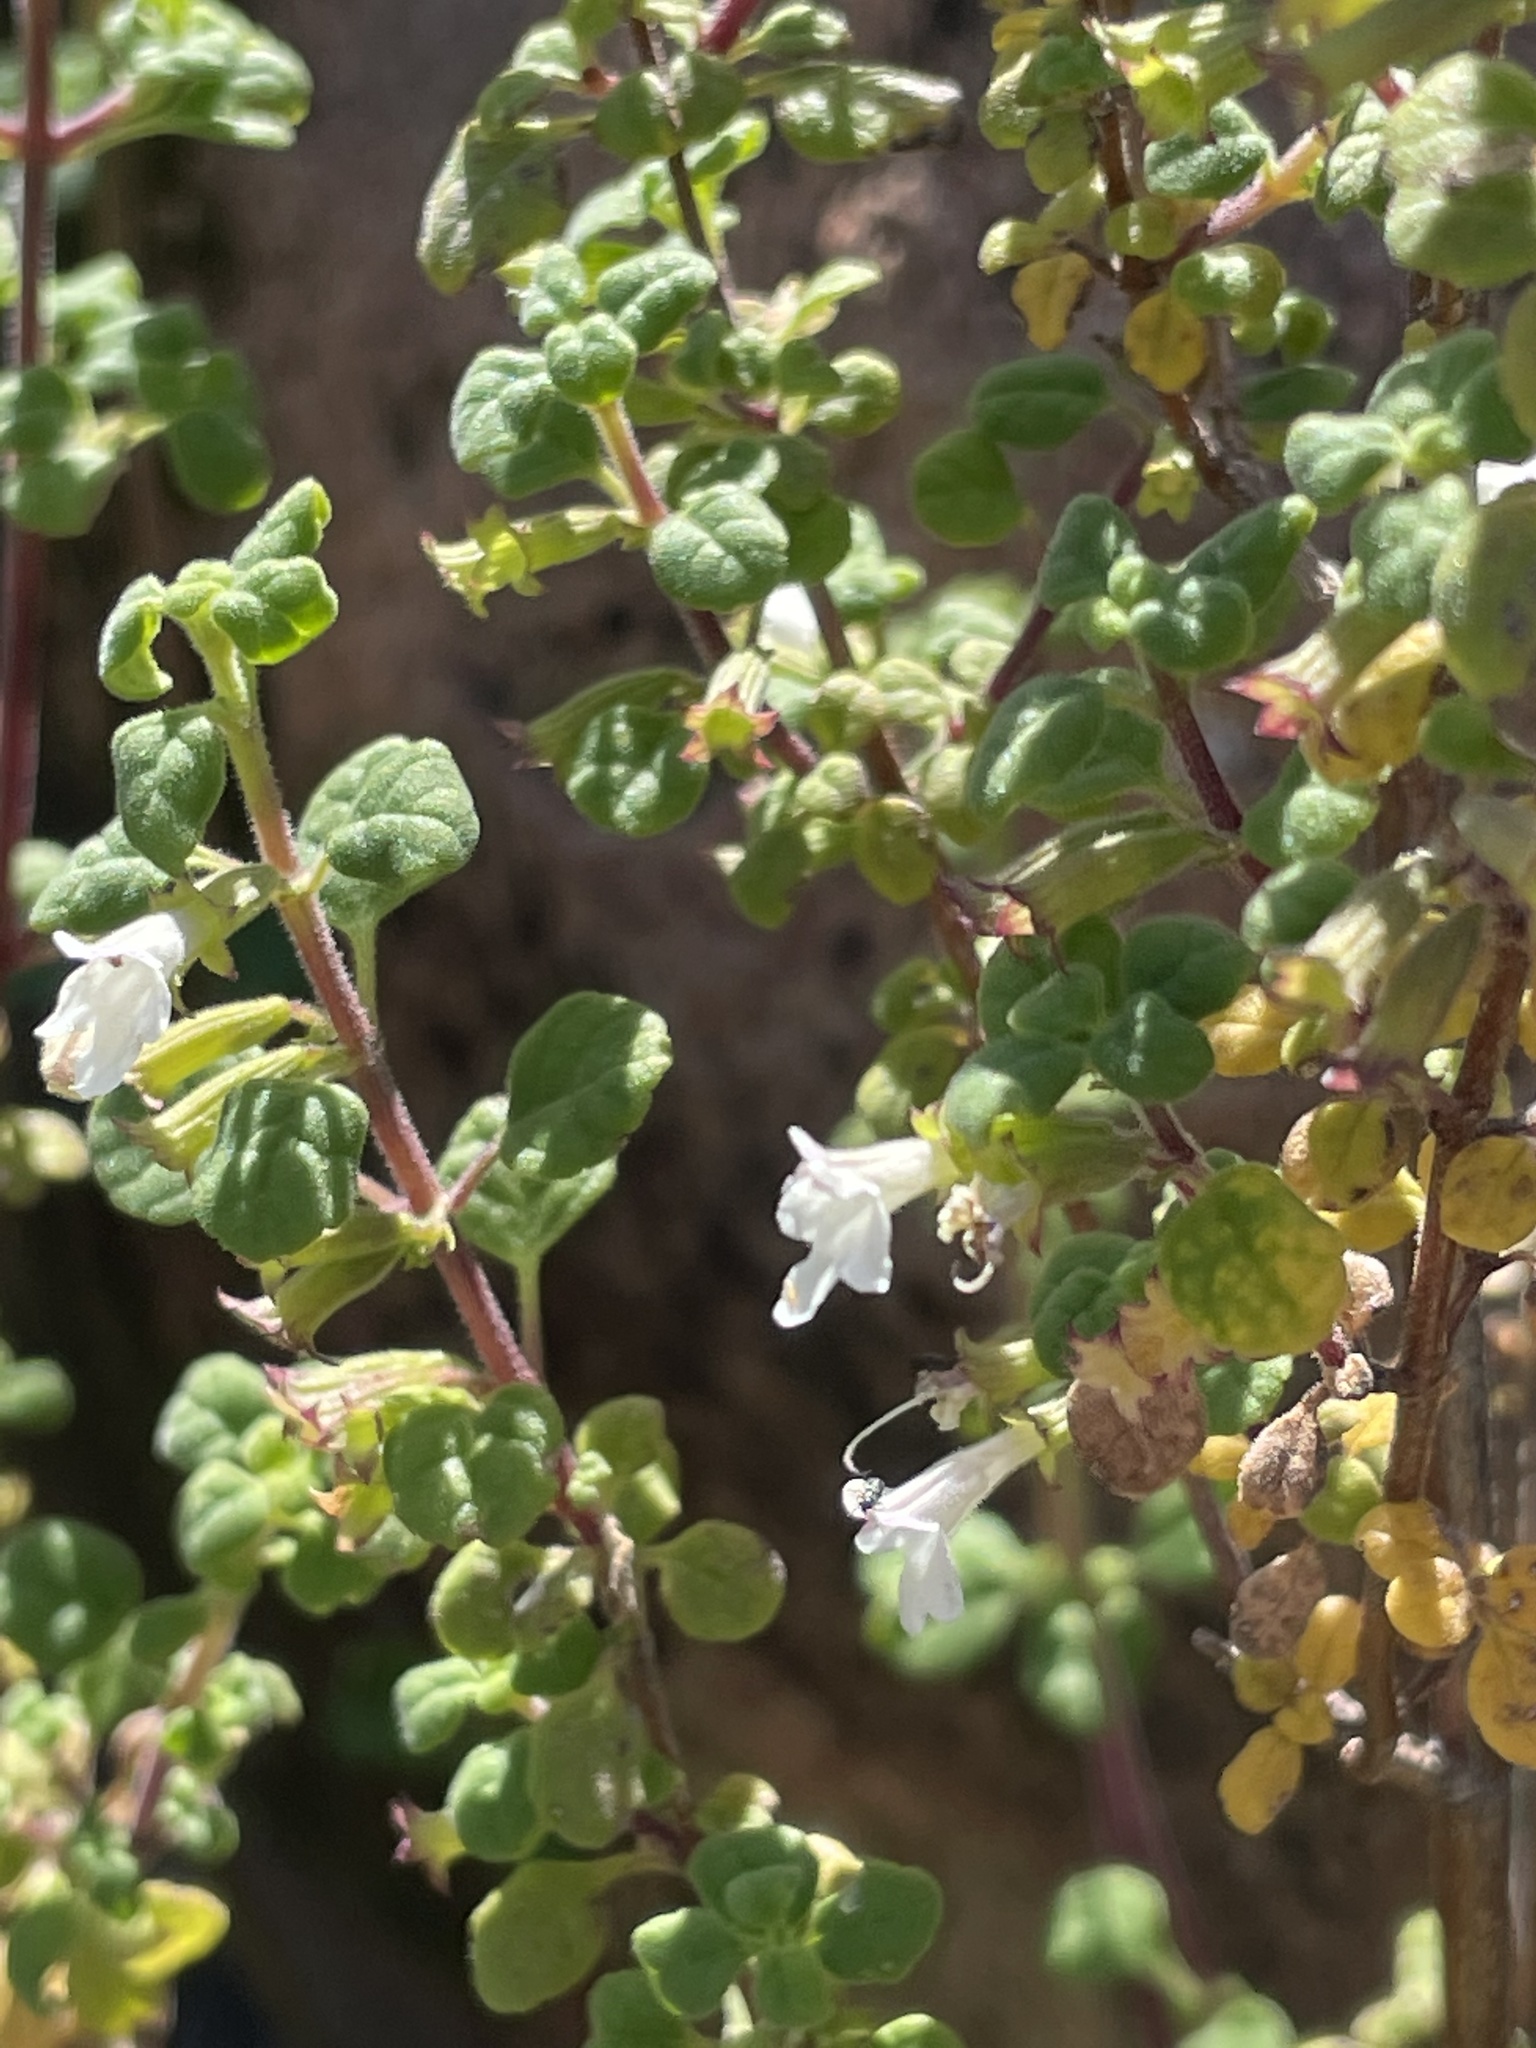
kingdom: Plantae
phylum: Tracheophyta
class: Magnoliopsida
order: Lamiales
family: Lamiaceae
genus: Clinopodium
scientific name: Clinopodium chandleri
